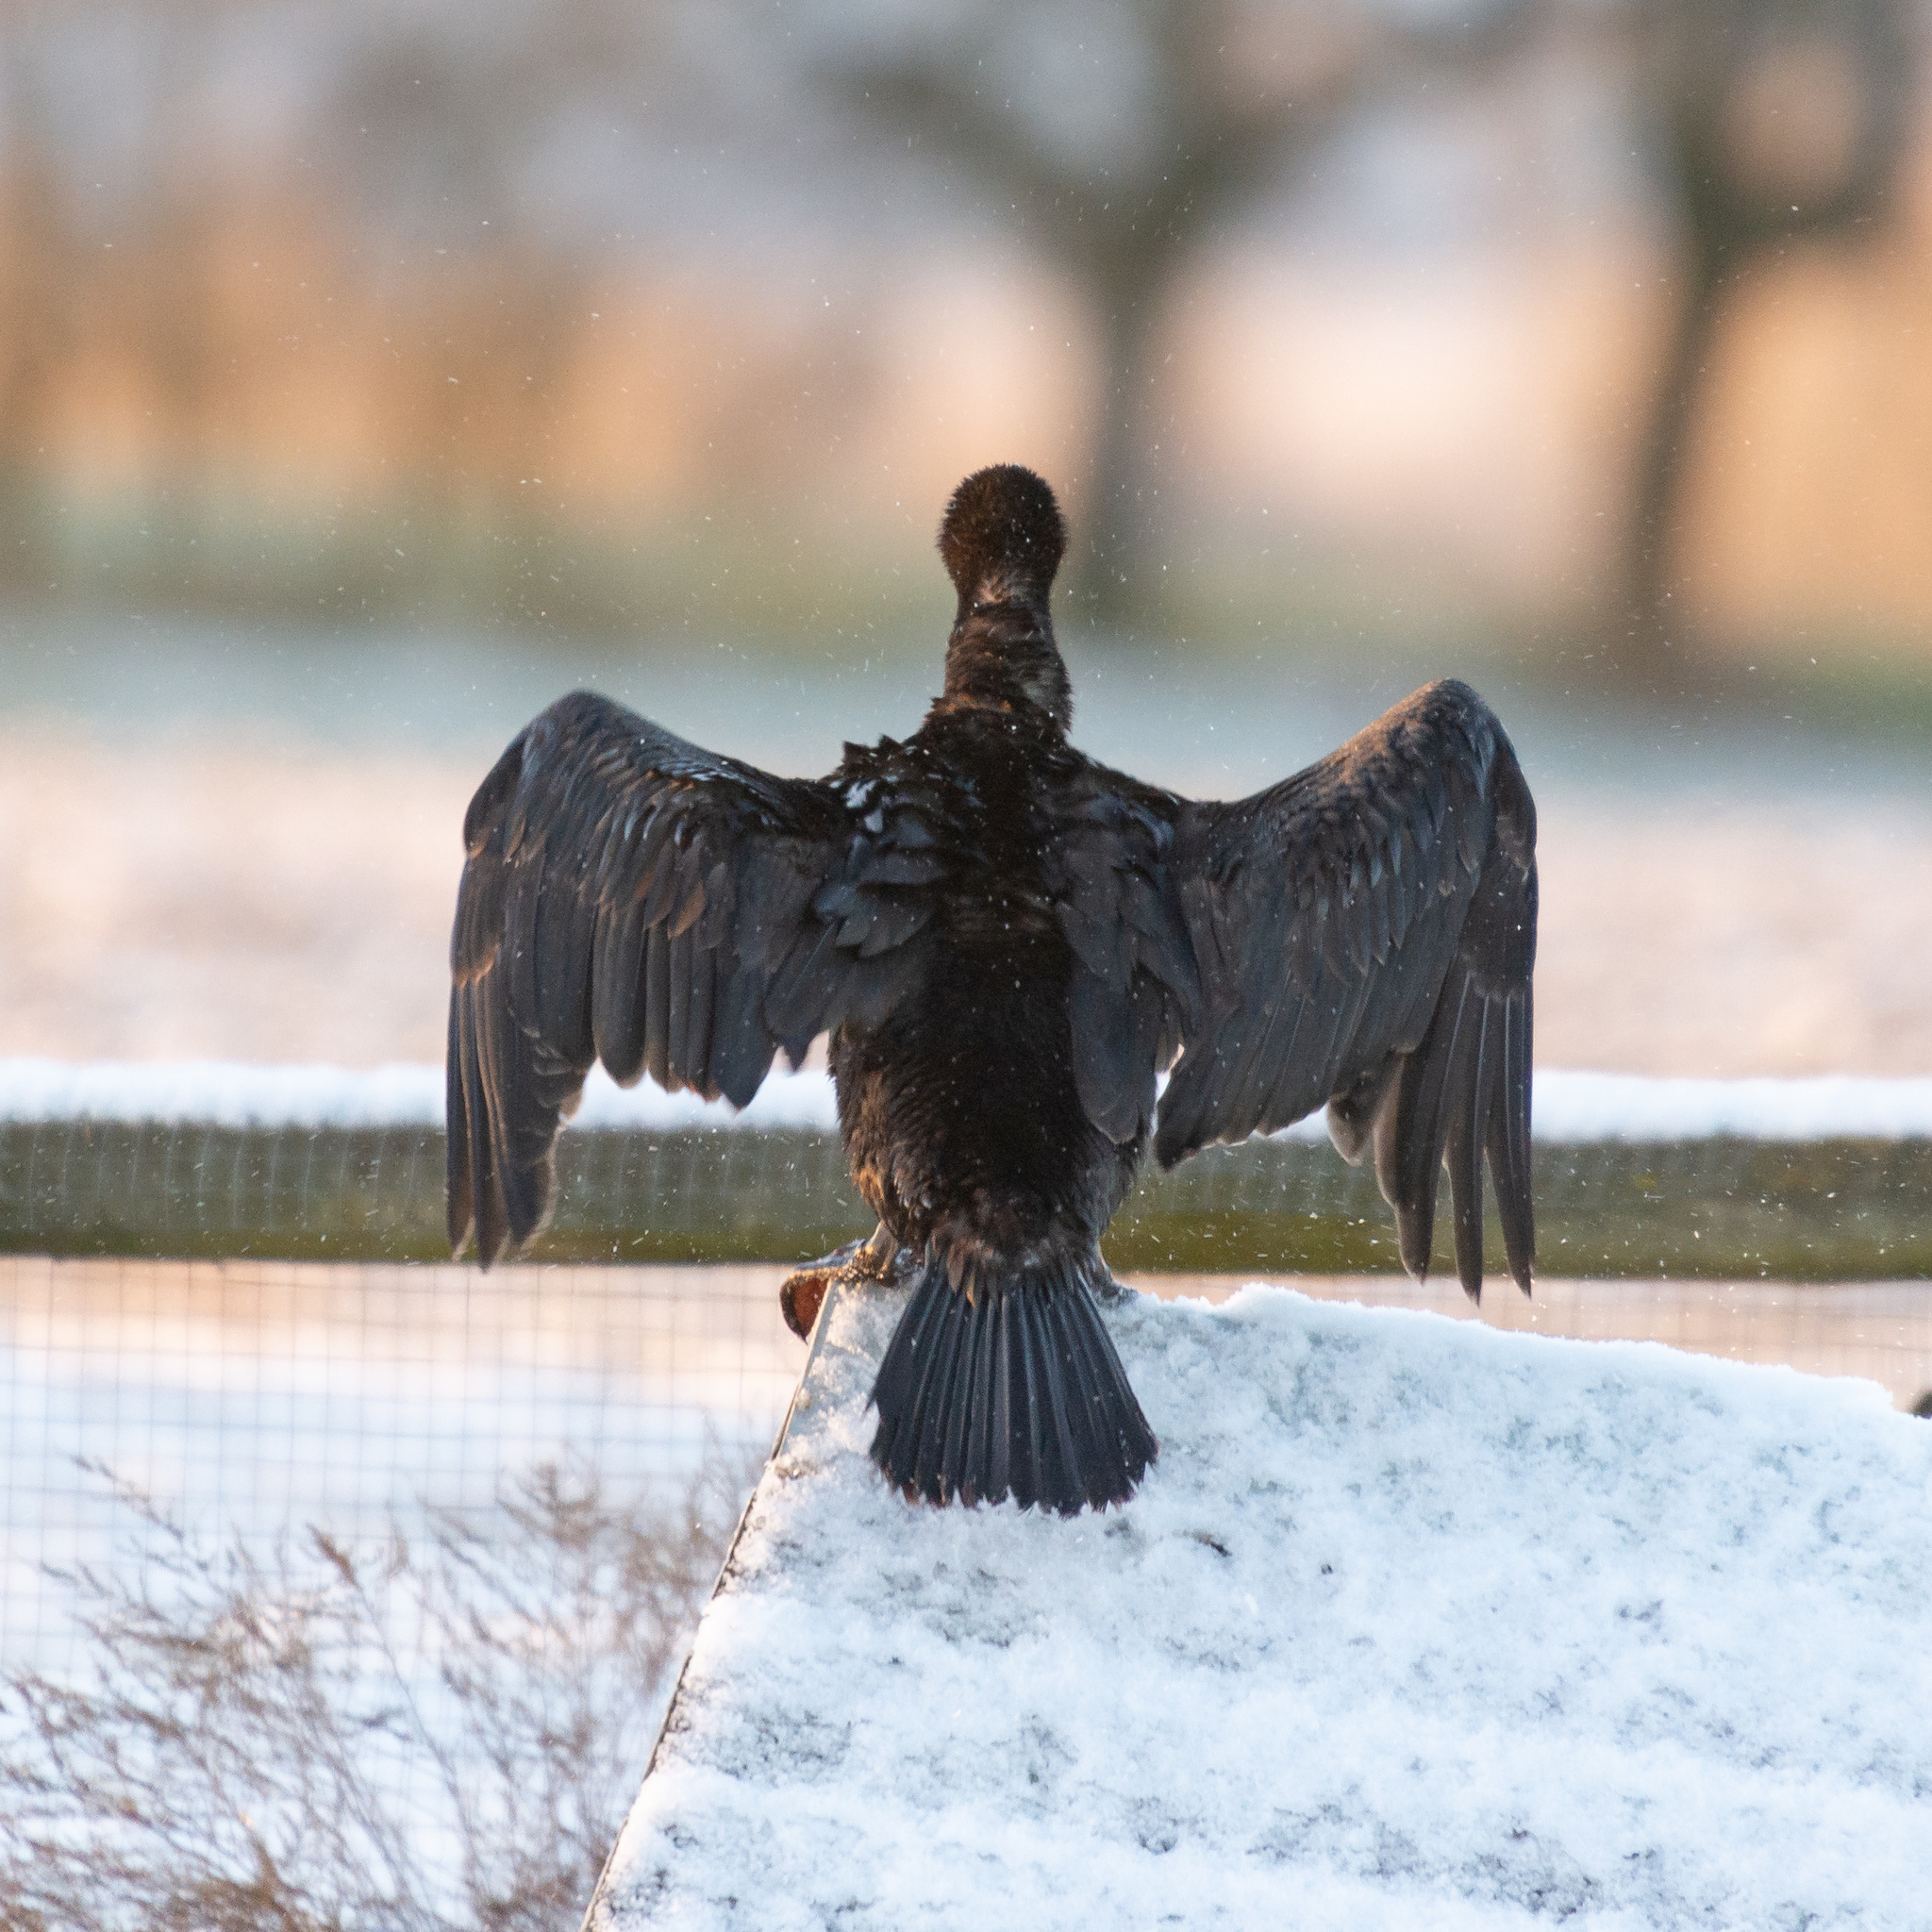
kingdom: Animalia
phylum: Chordata
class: Aves
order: Suliformes
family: Phalacrocoracidae
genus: Phalacrocorax
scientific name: Phalacrocorax carbo
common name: Great cormorant
